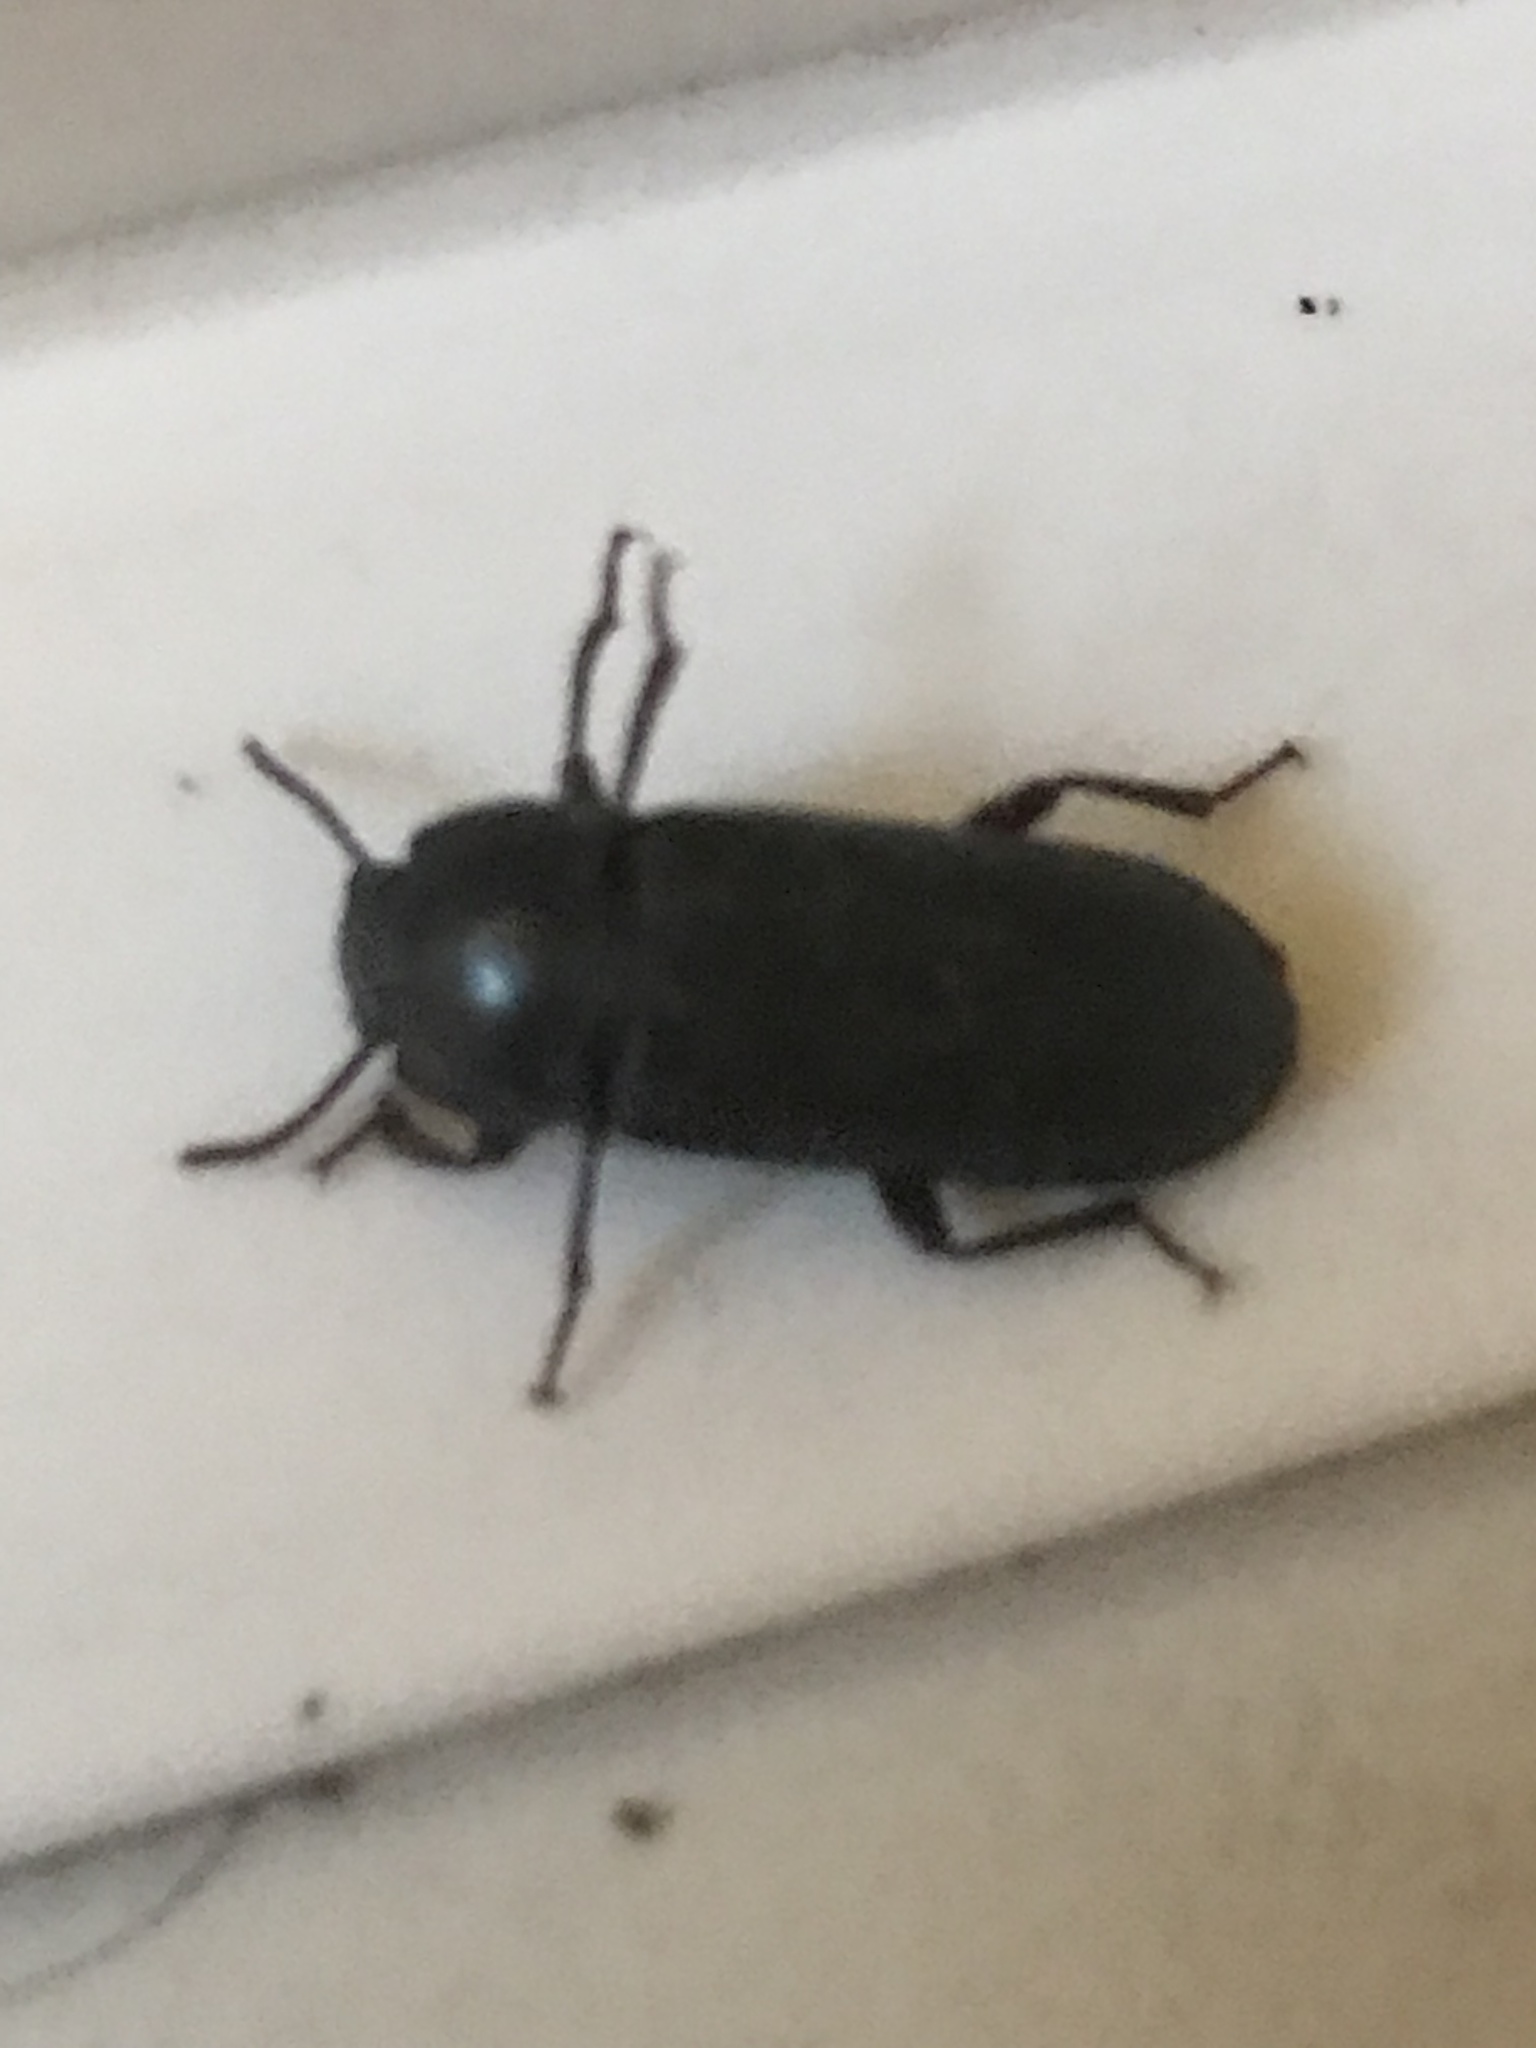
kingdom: Animalia
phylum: Arthropoda
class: Insecta
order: Coleoptera
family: Tenebrionidae
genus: Tenebrio
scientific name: Tenebrio molitor
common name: Hardback beetle
